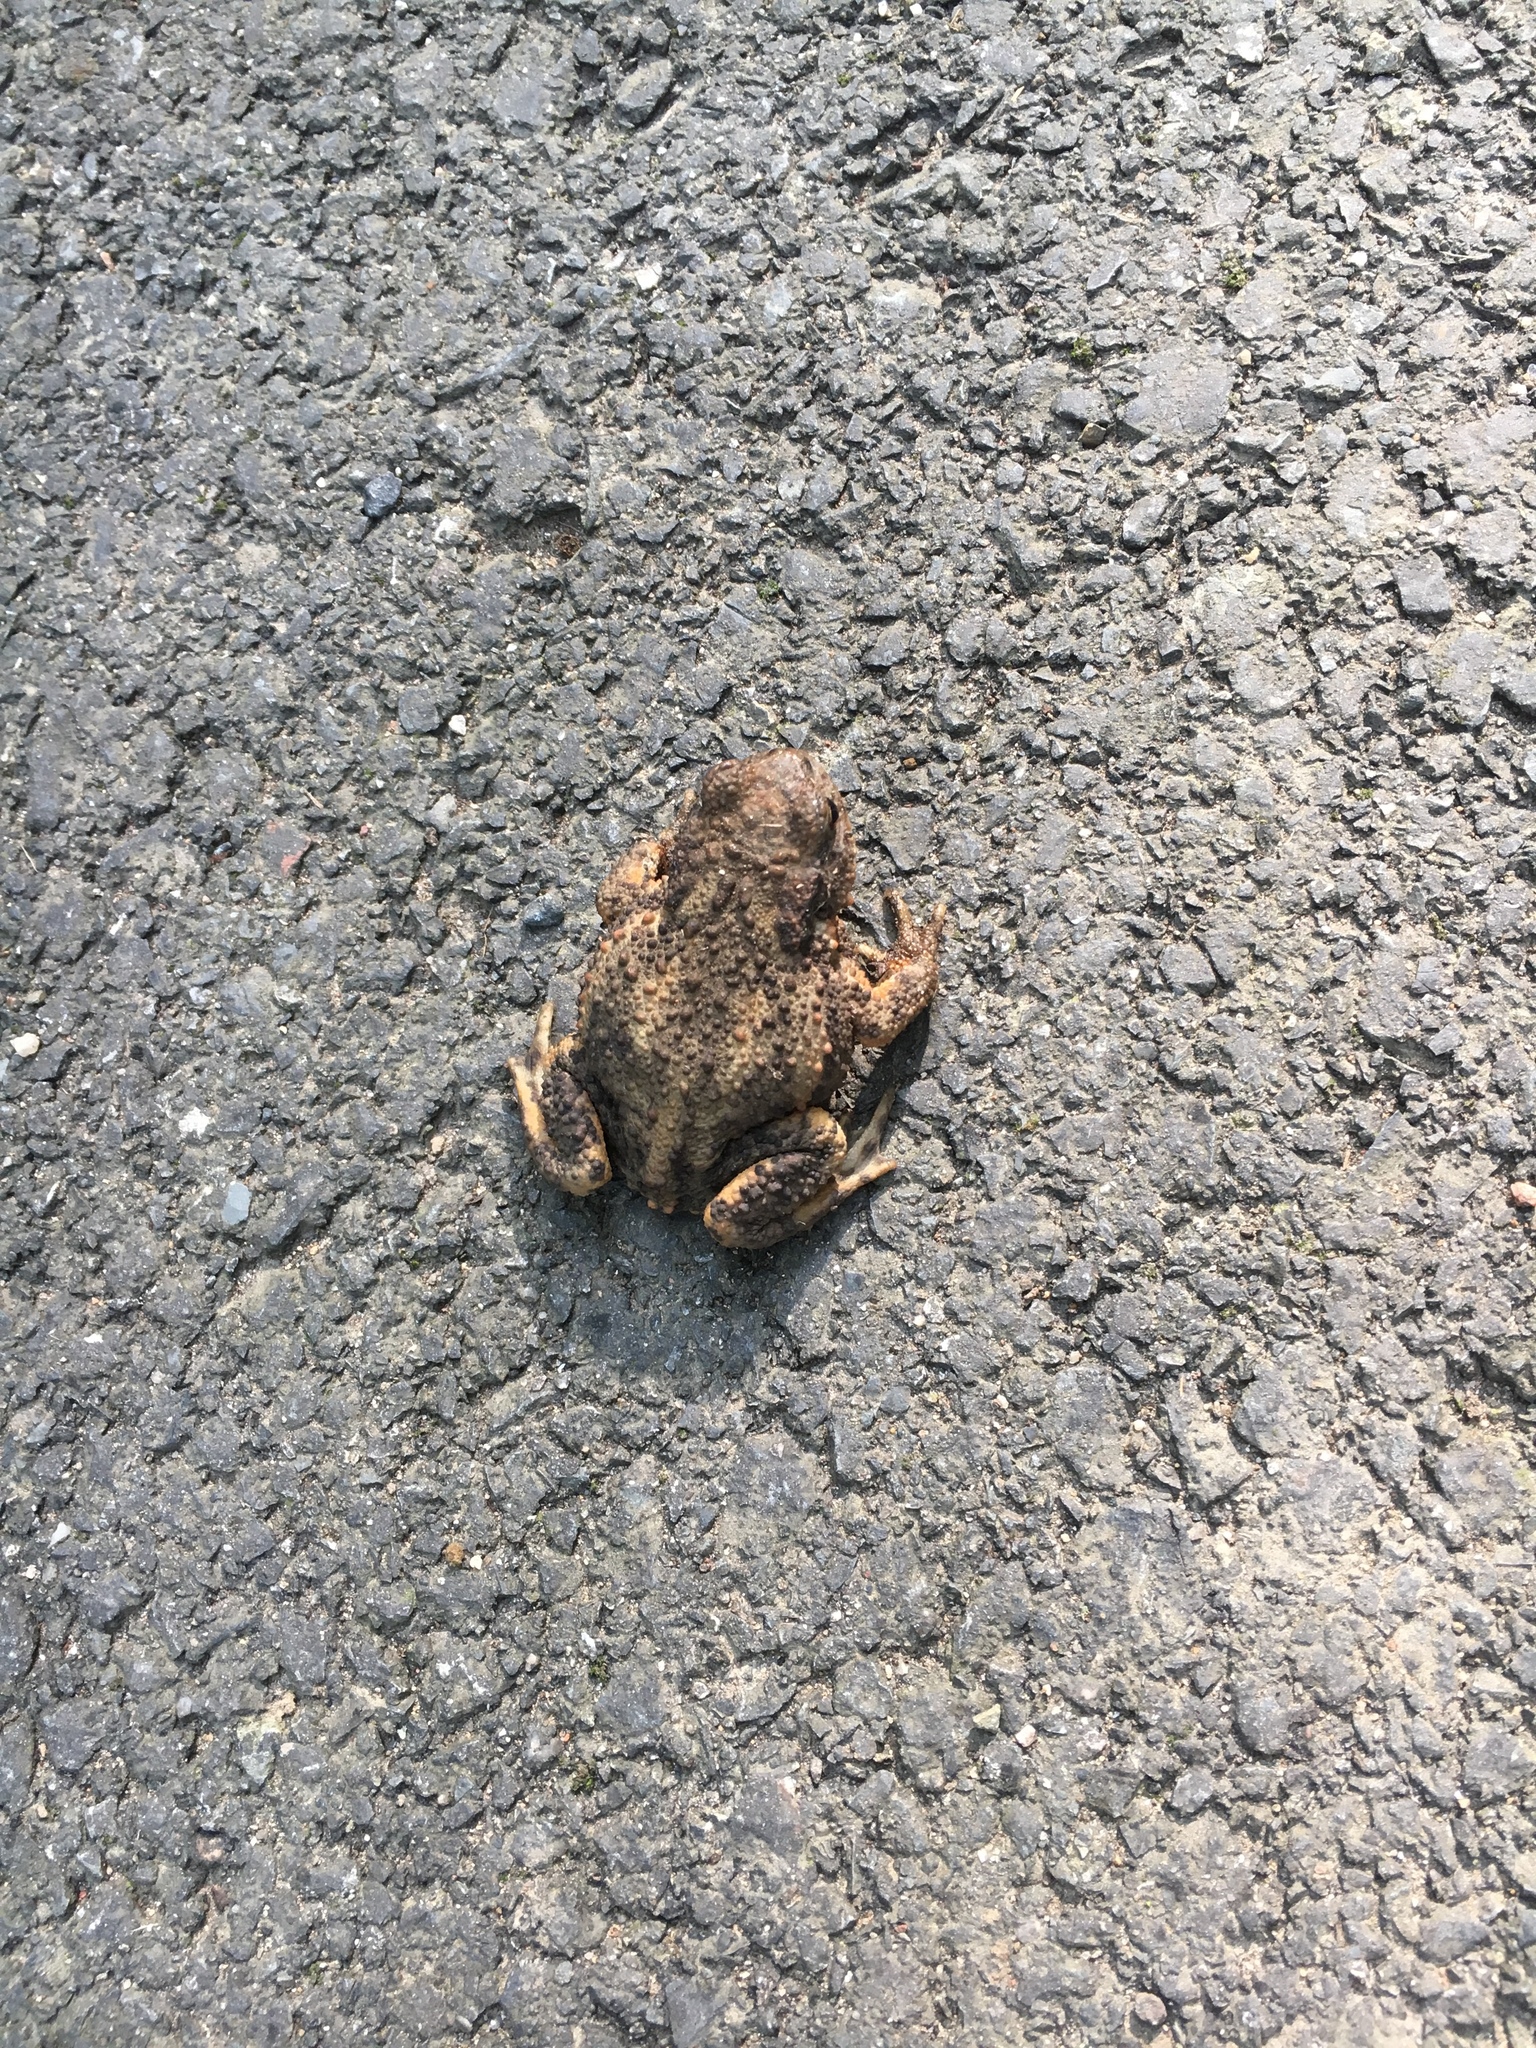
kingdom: Animalia
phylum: Chordata
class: Amphibia
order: Anura
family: Bufonidae
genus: Bufo
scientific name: Bufo bufo
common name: Common toad
